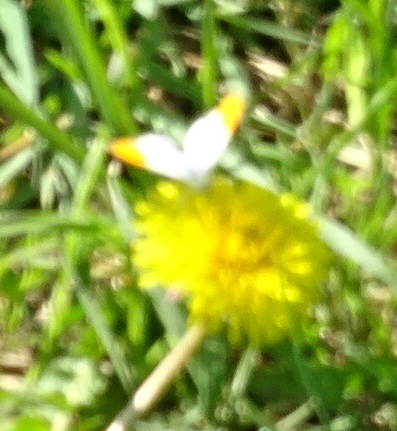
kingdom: Animalia
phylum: Arthropoda
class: Insecta
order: Lepidoptera
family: Pieridae
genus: Anthocharis
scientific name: Anthocharis cardamines
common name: Orange-tip
